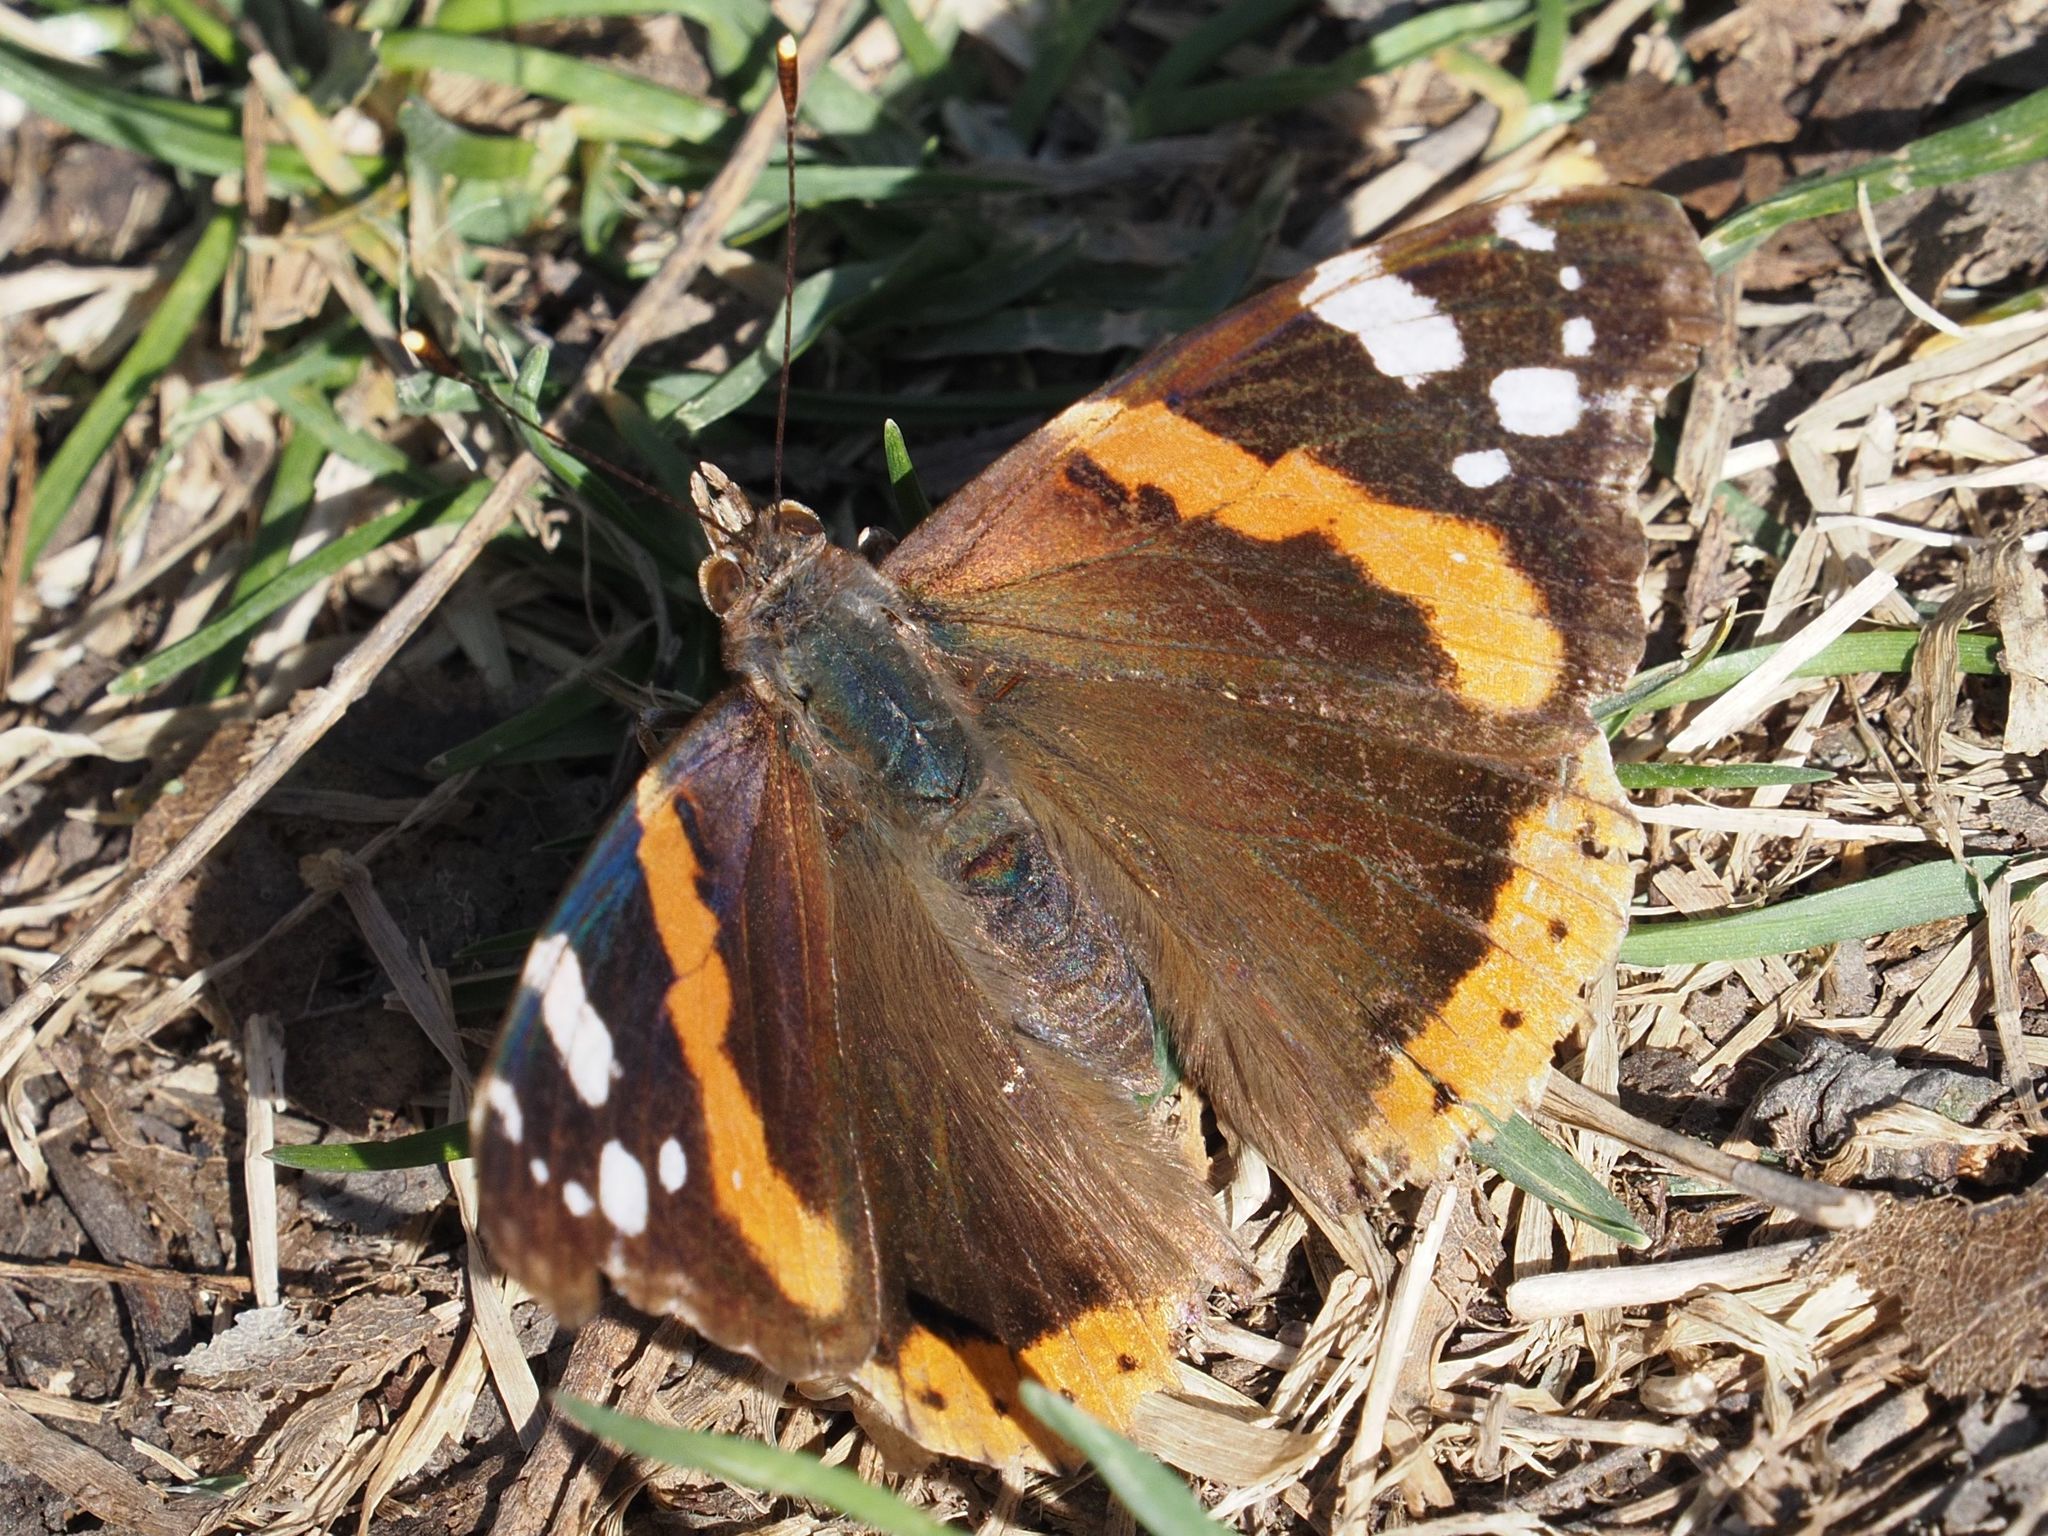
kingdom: Animalia
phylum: Arthropoda
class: Insecta
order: Lepidoptera
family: Nymphalidae
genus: Vanessa
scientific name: Vanessa atalanta
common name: Red admiral
